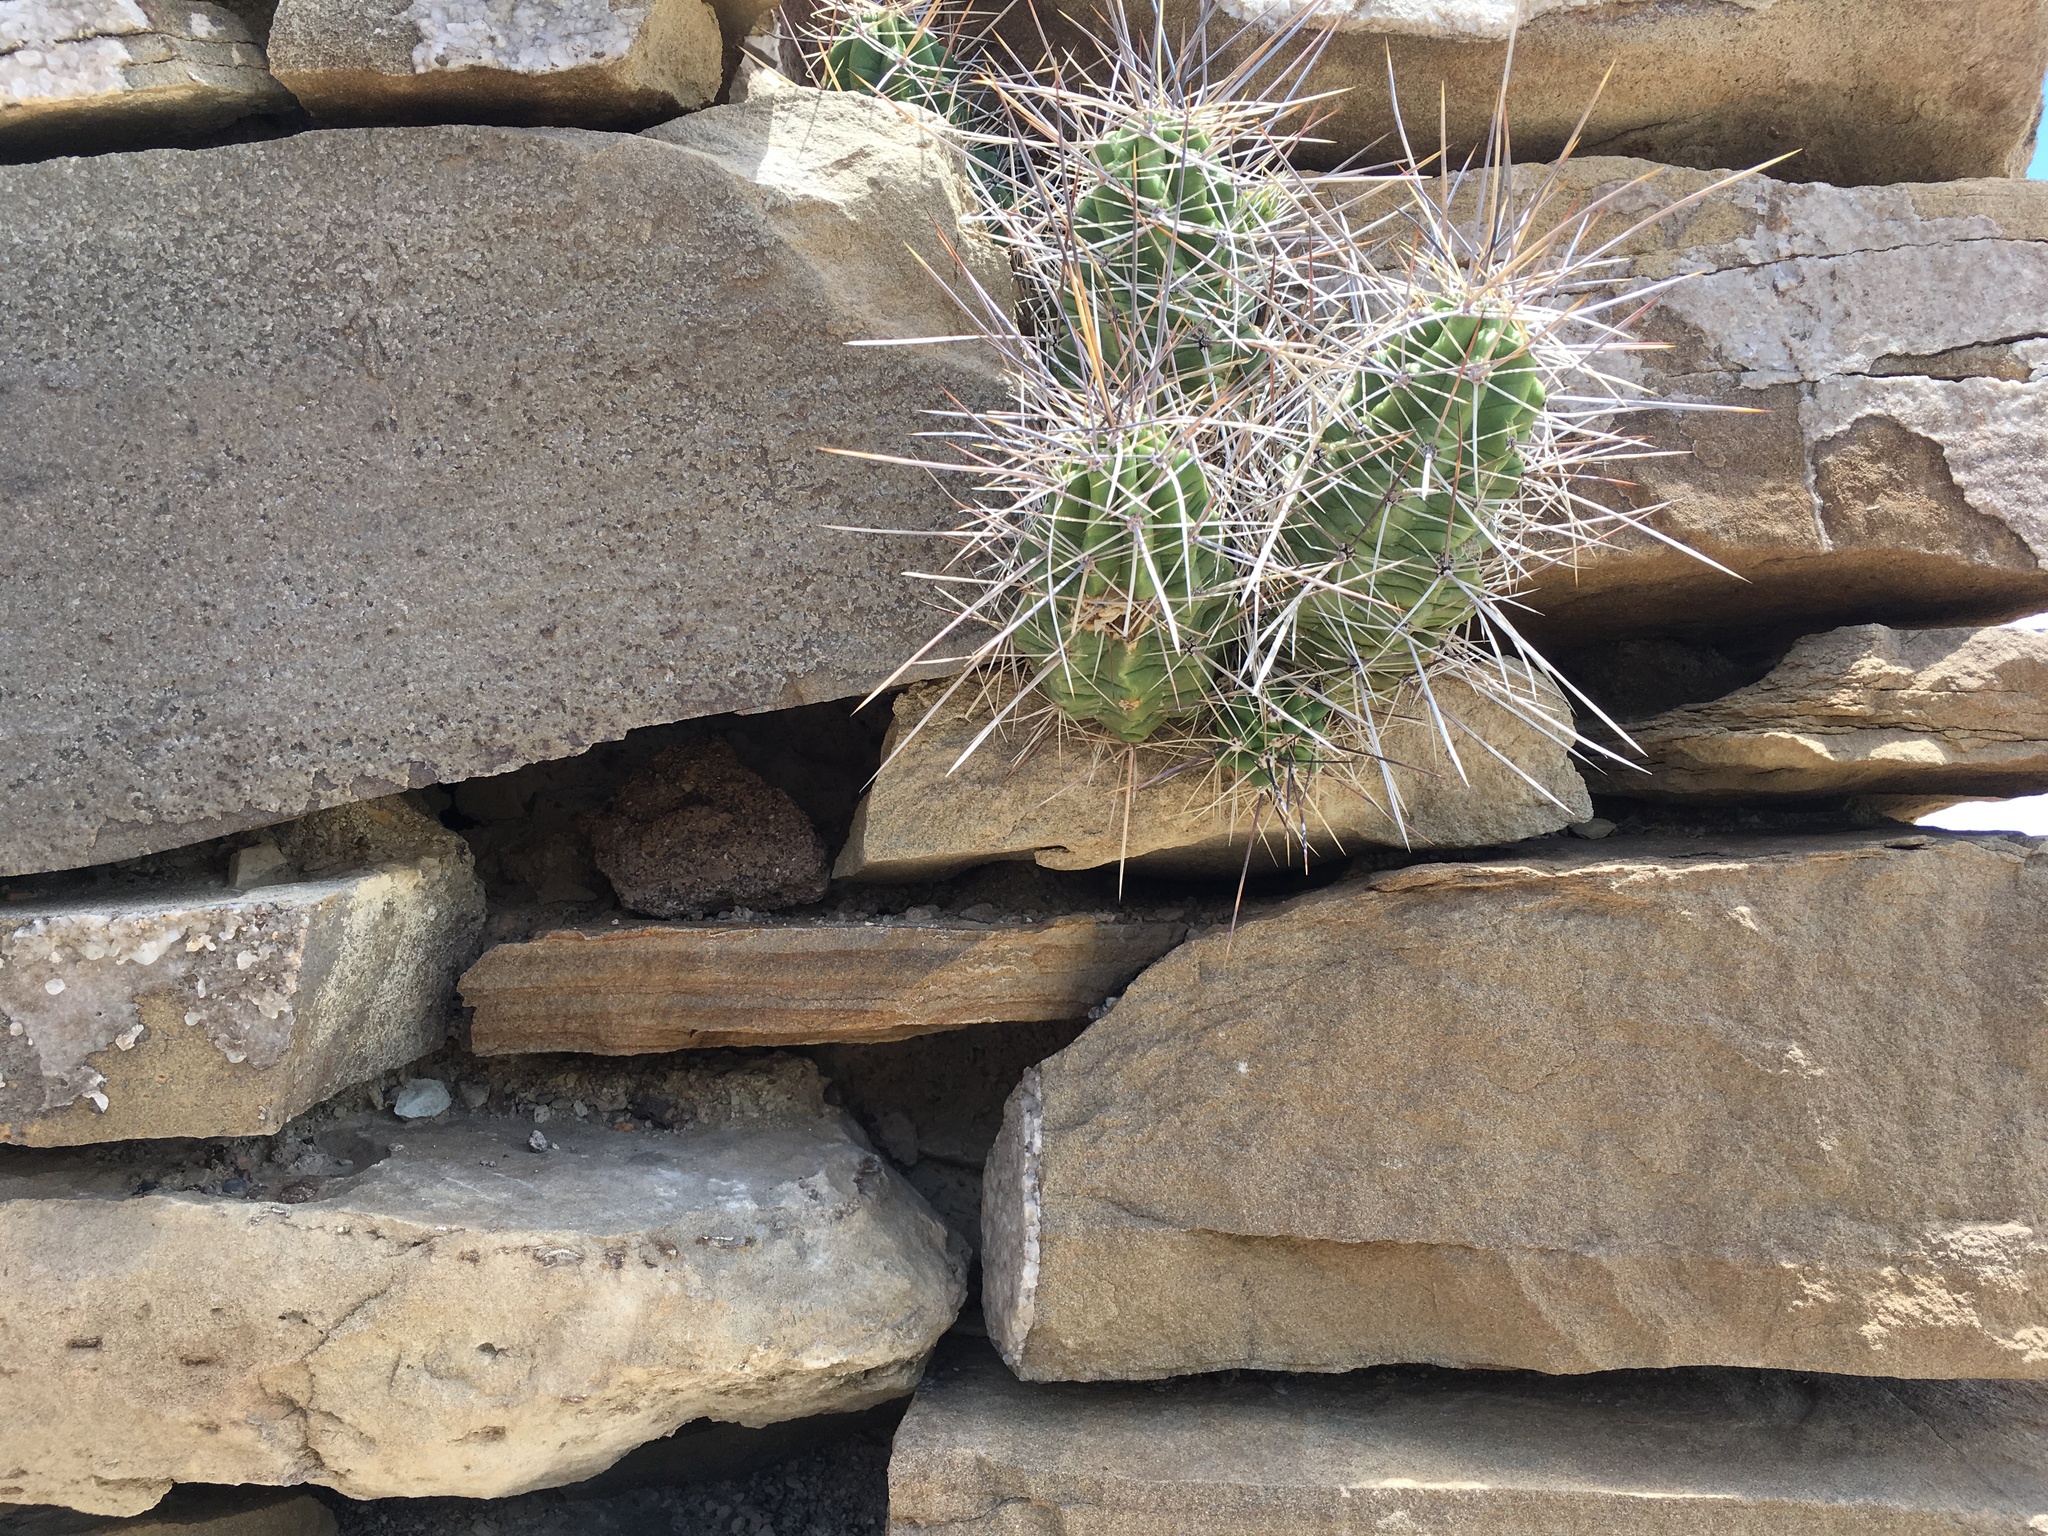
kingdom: Plantae
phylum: Tracheophyta
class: Magnoliopsida
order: Caryophyllales
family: Cactaceae
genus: Echinocereus
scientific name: Echinocereus enneacanthus
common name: Pitaya
